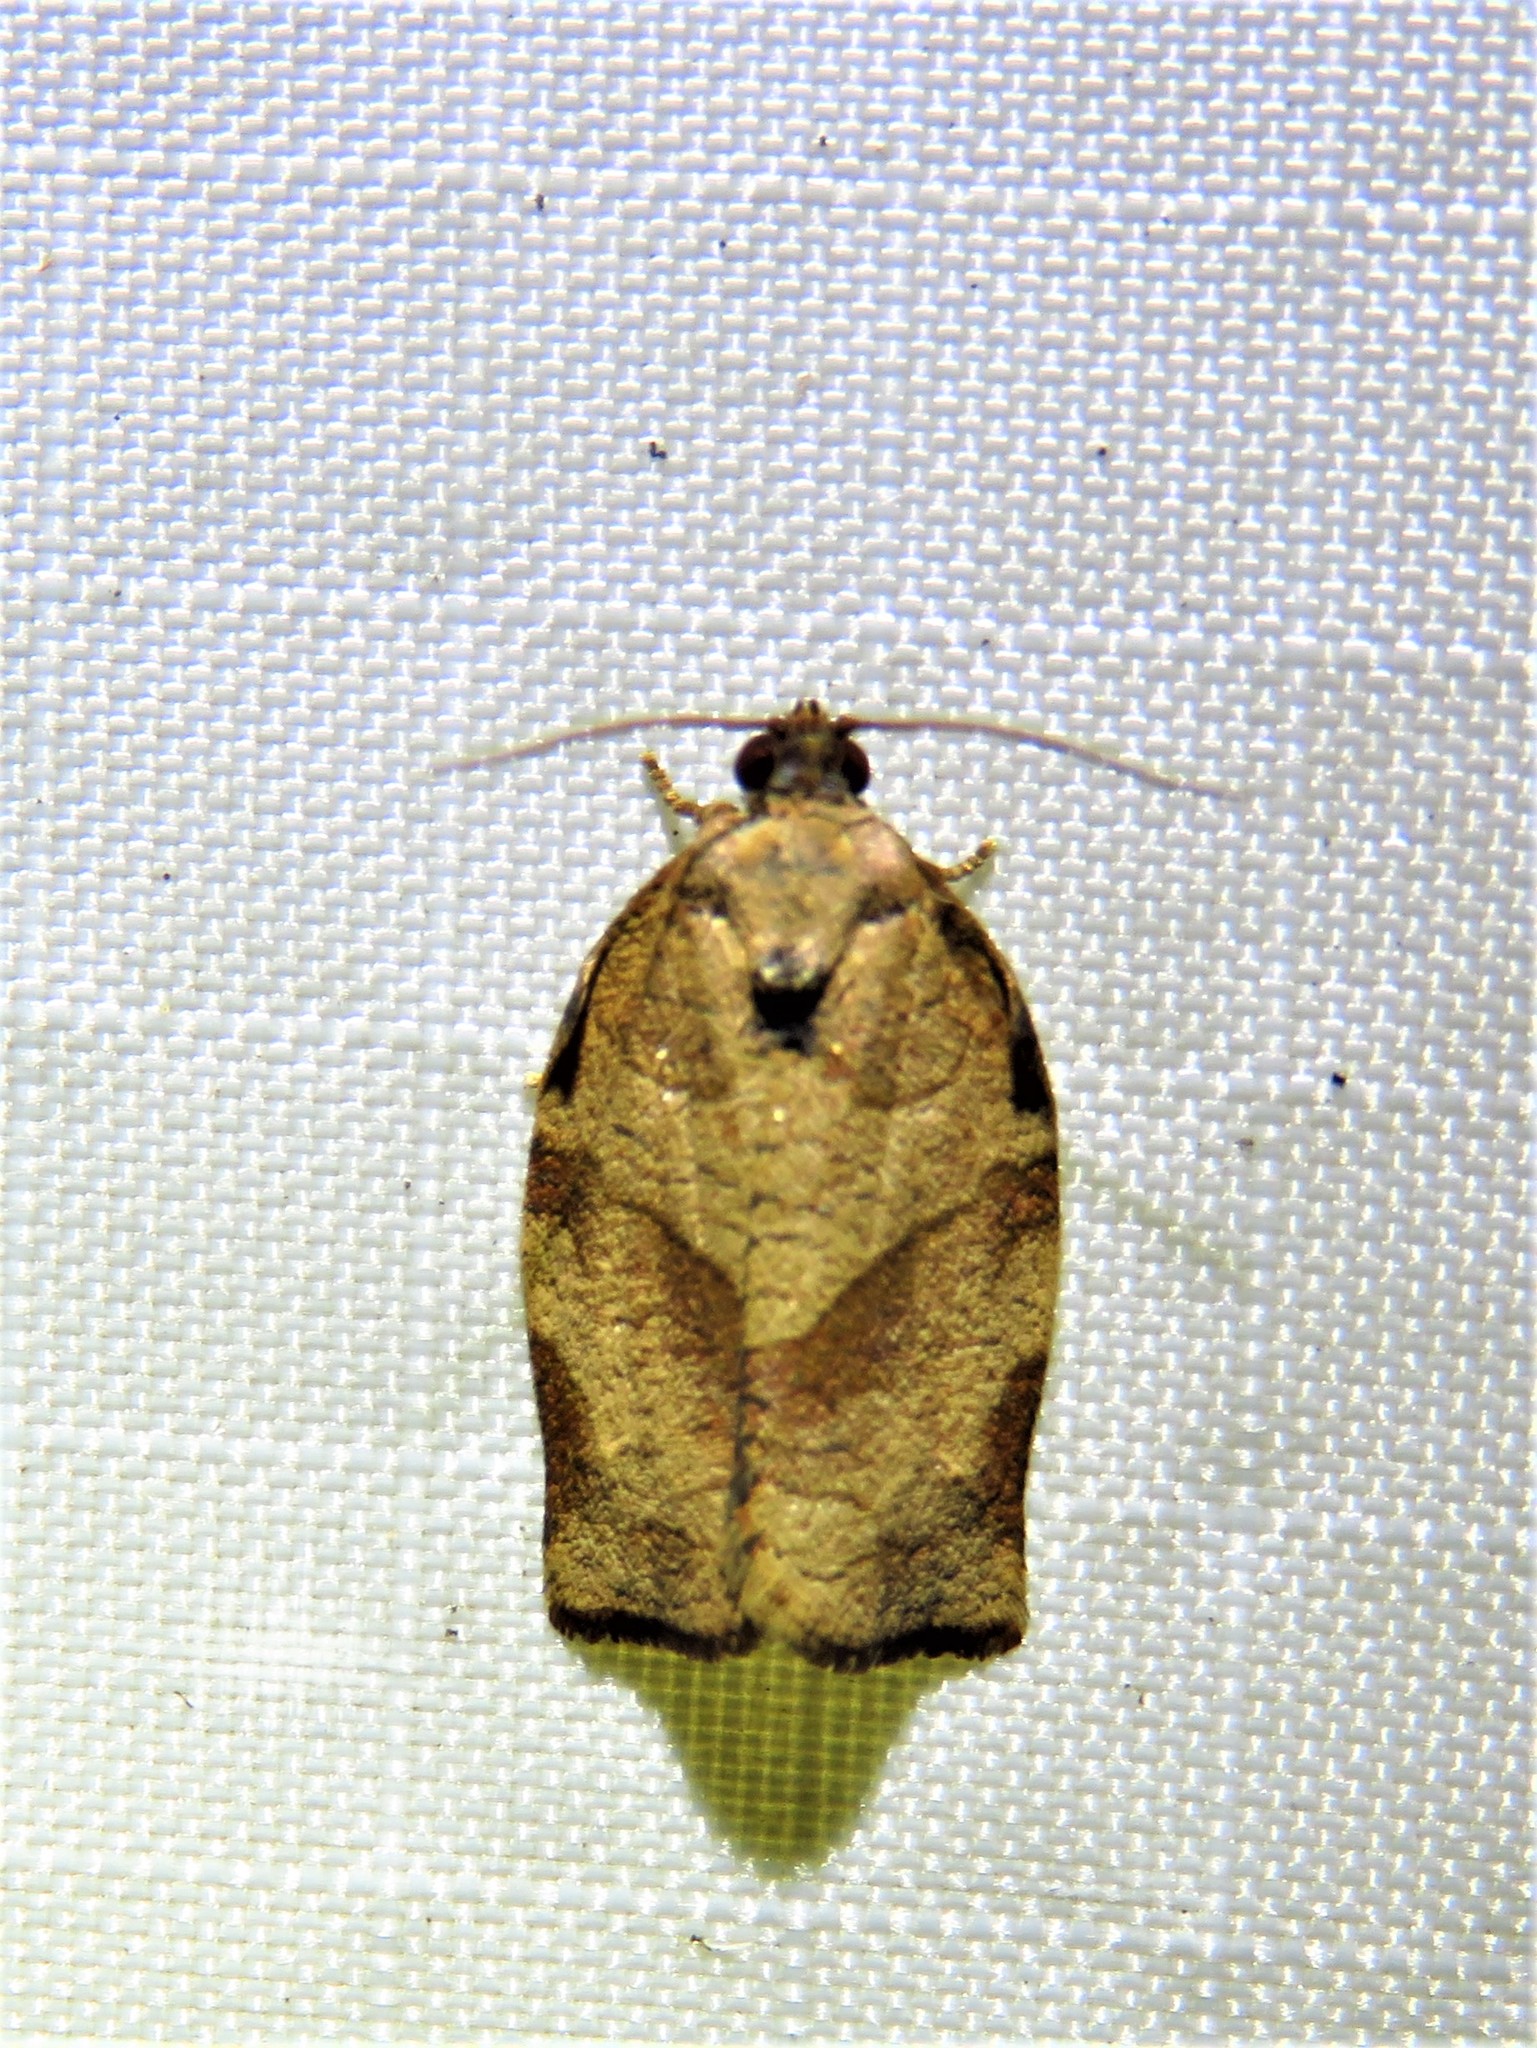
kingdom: Animalia
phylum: Arthropoda
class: Insecta
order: Lepidoptera
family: Tortricidae
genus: Choristoneura
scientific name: Choristoneura rosaceana
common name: Oblique-banded leafroller moth
